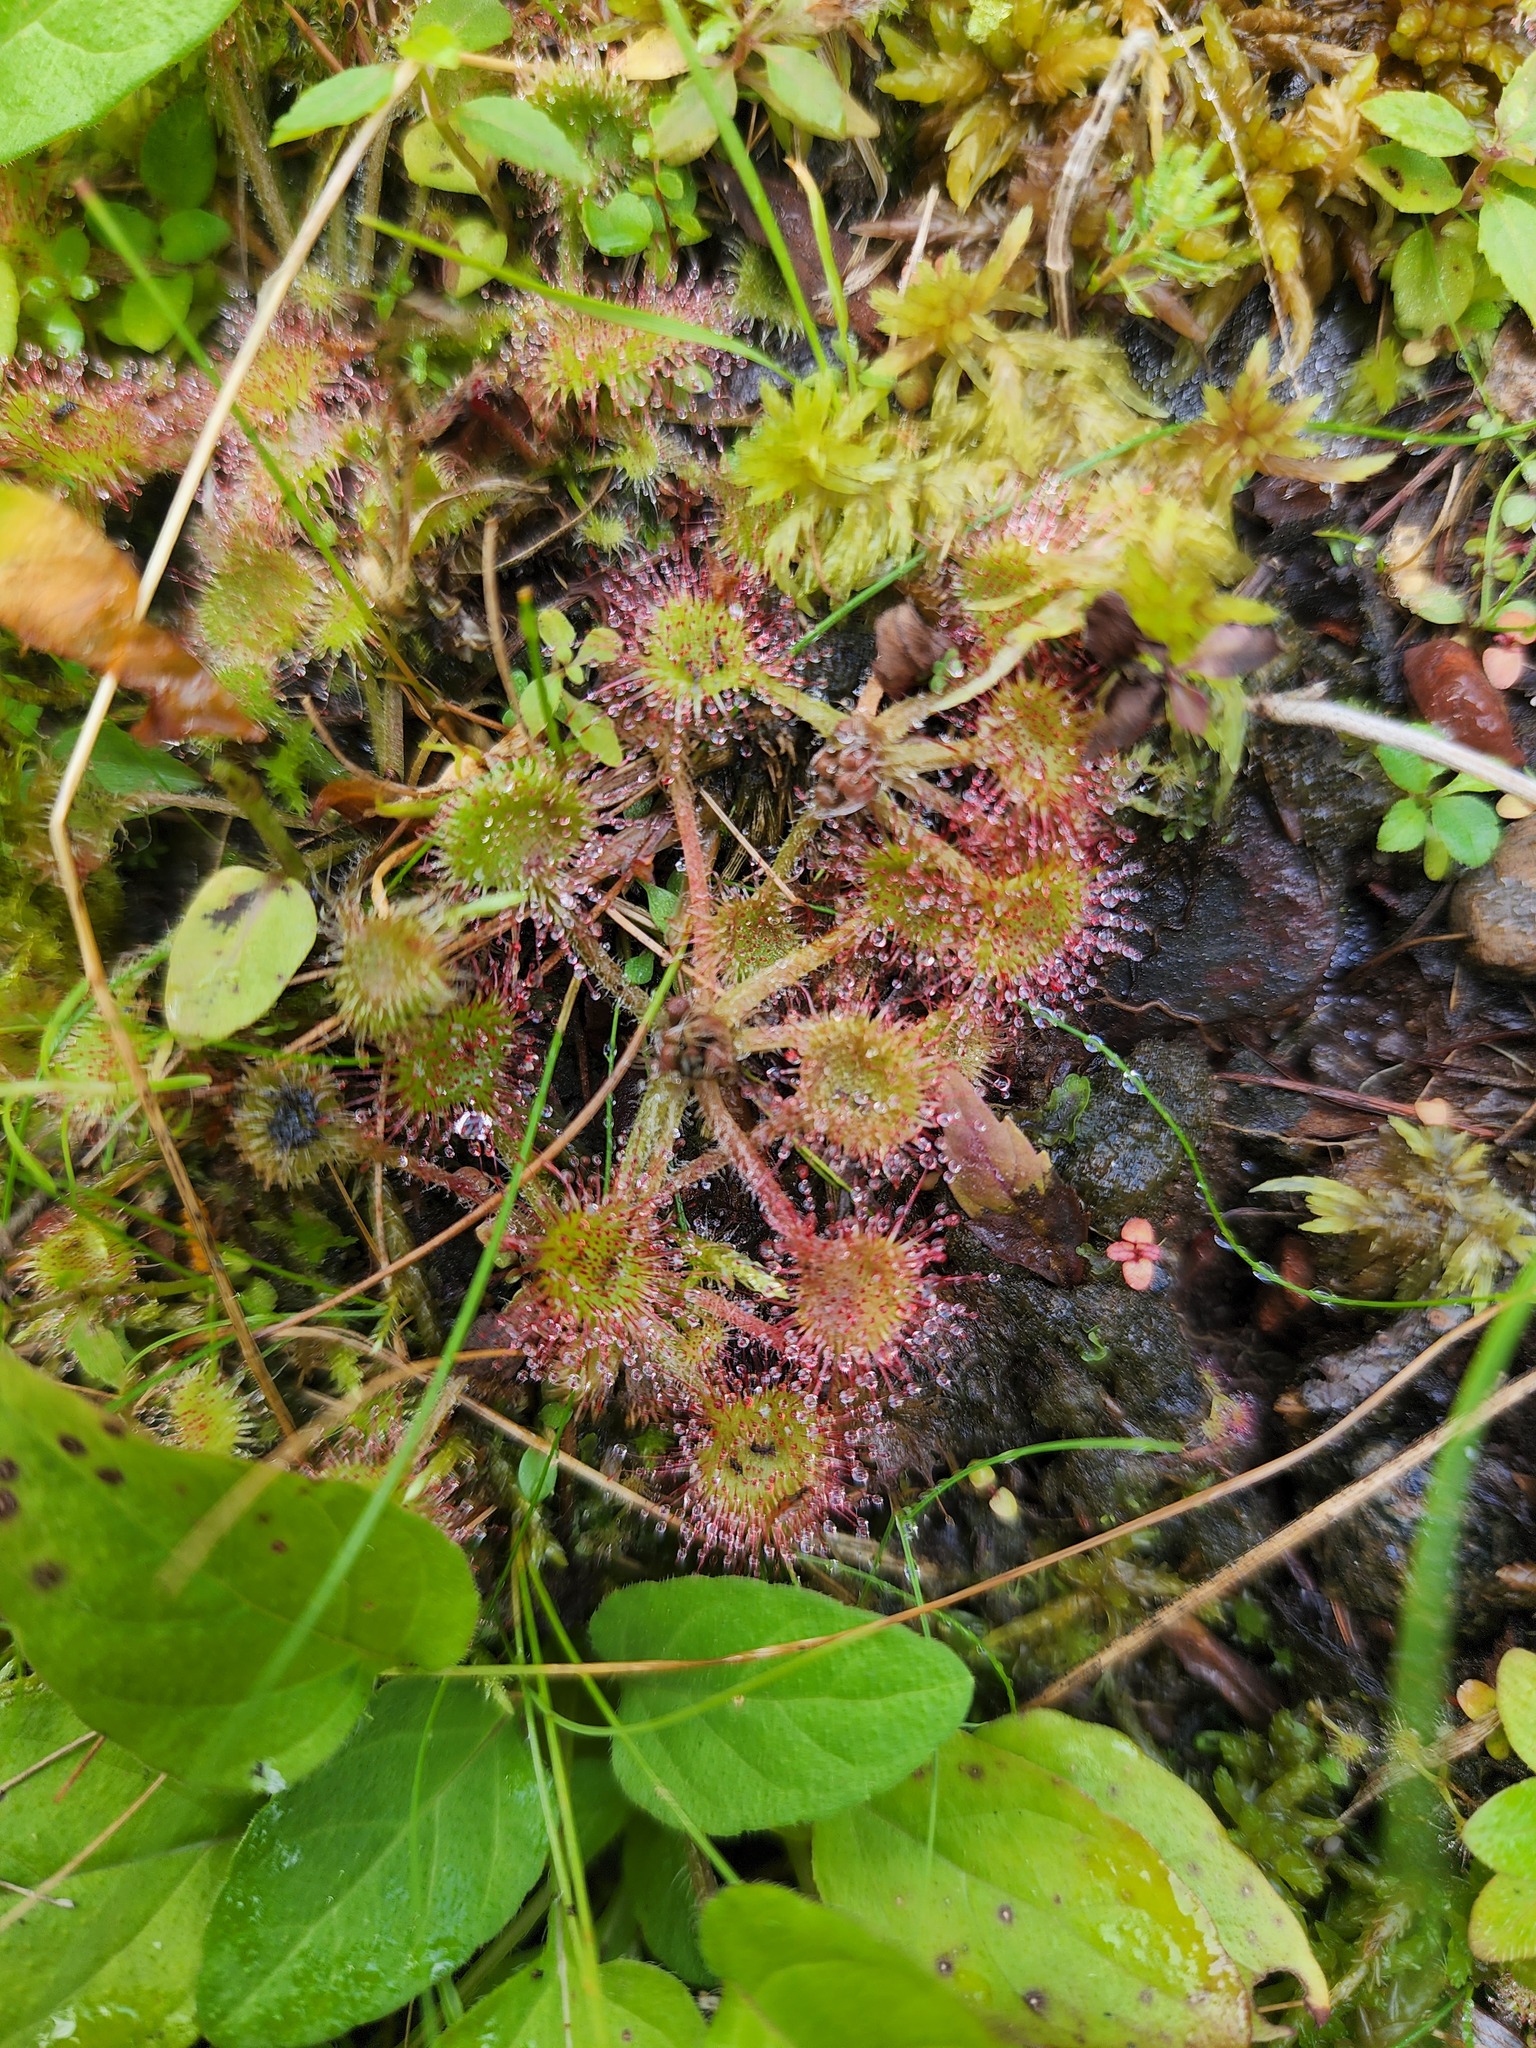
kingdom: Plantae
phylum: Tracheophyta
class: Magnoliopsida
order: Caryophyllales
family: Droseraceae
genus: Drosera
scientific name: Drosera rotundifolia
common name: Round-leaved sundew
